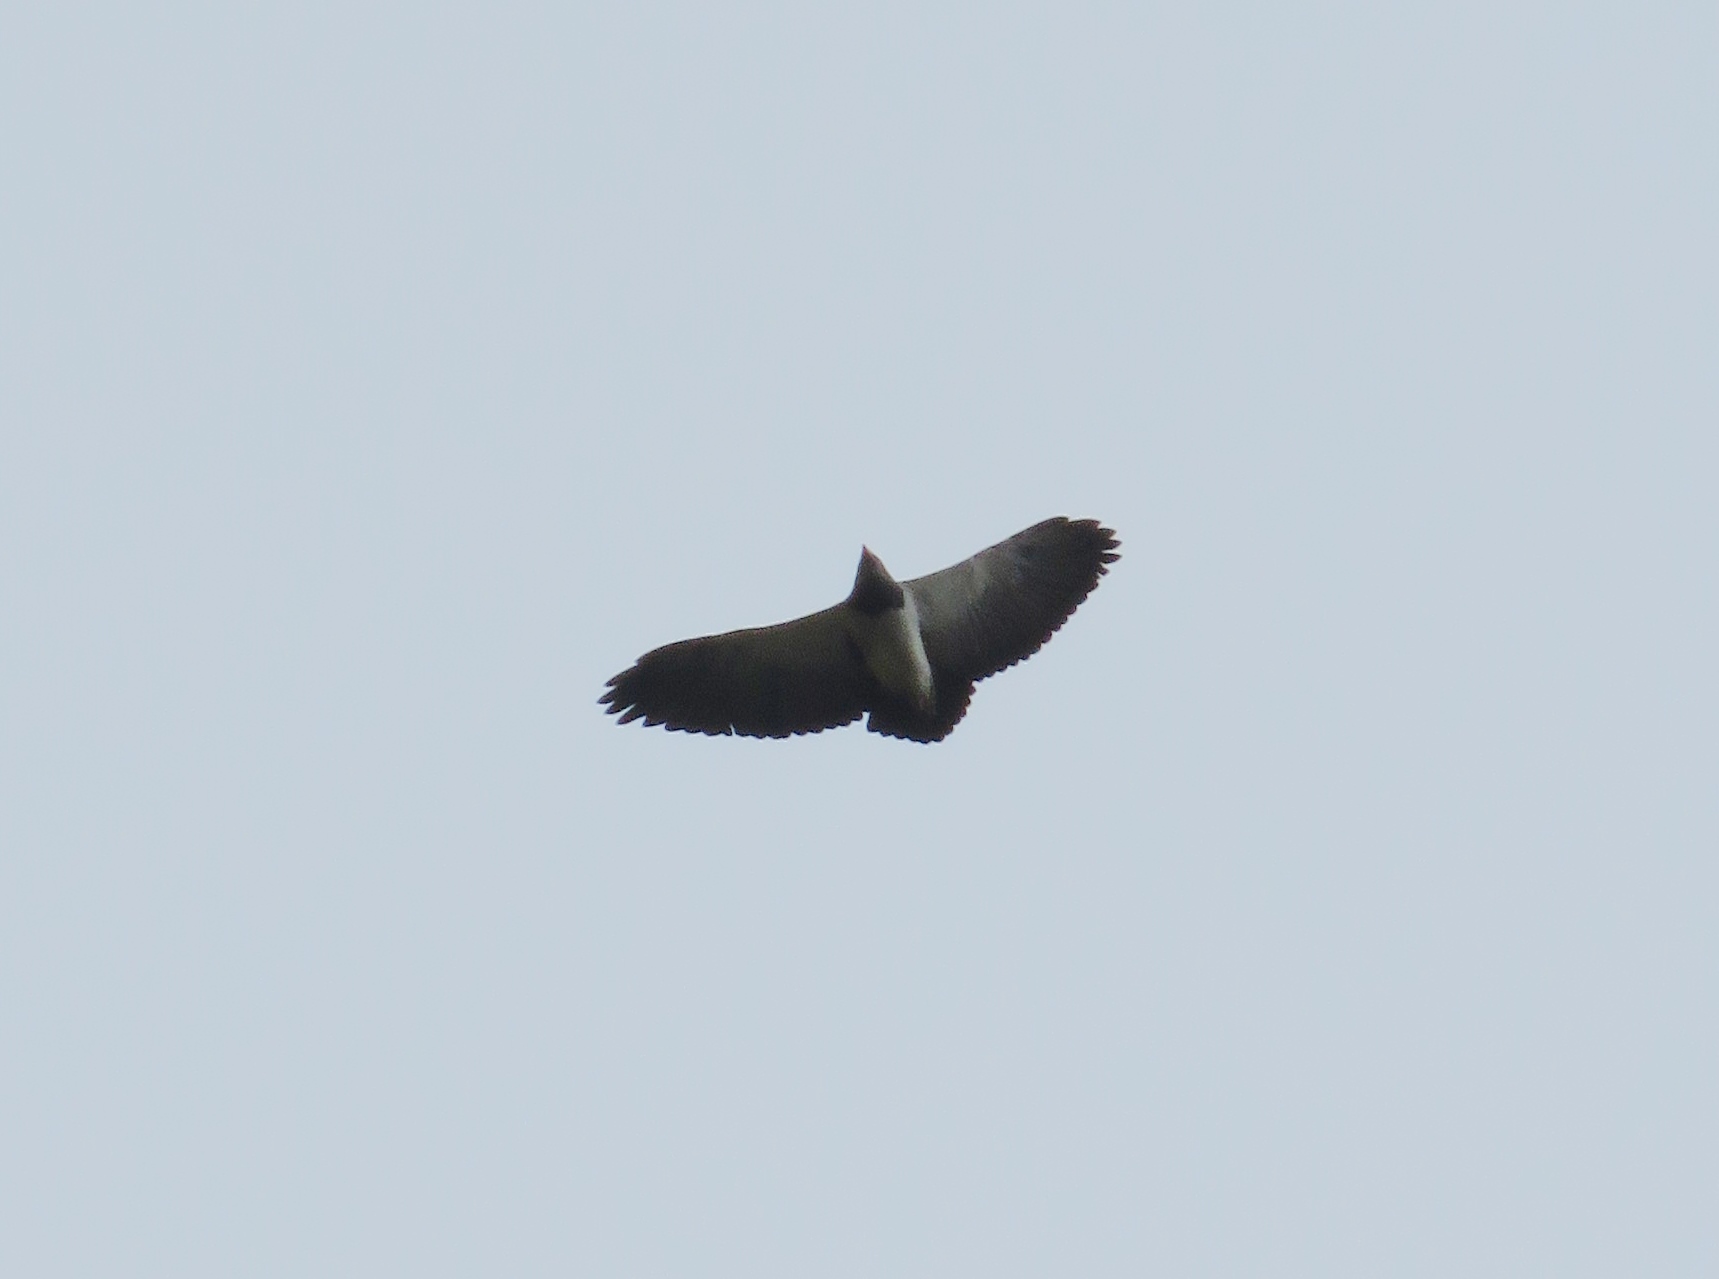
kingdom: Animalia
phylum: Chordata
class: Aves
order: Accipitriformes
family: Accipitridae
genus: Geranoaetus
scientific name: Geranoaetus melanoleucus
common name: Black-chested buzzard-eagle
